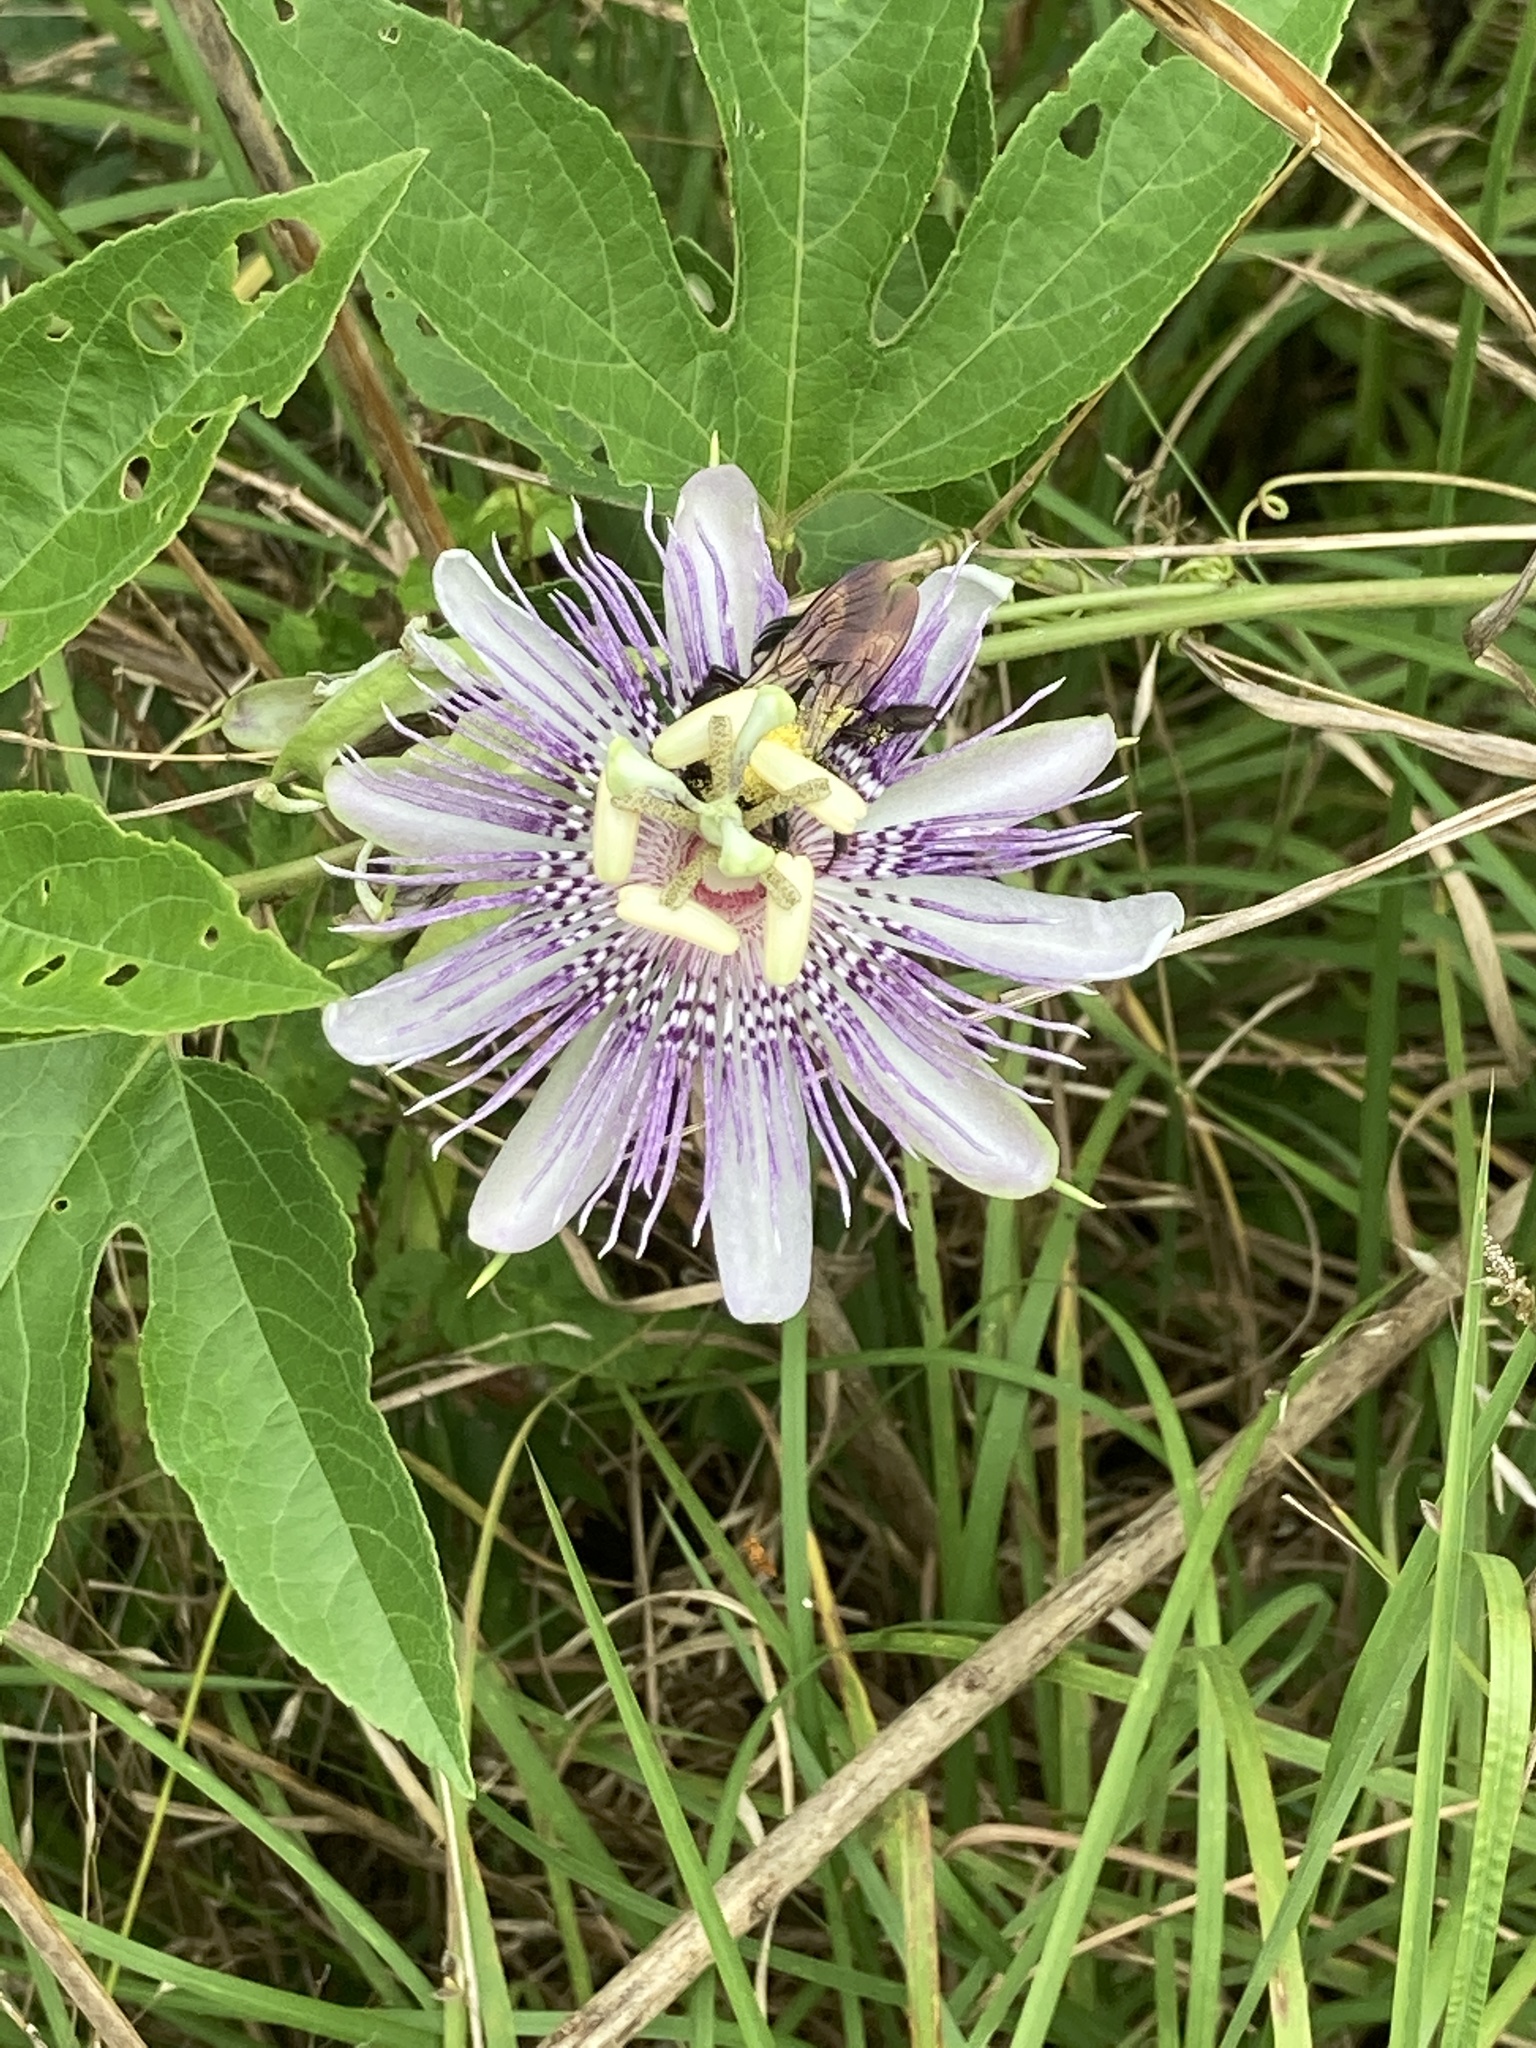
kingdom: Plantae
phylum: Tracheophyta
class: Magnoliopsida
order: Malpighiales
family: Passifloraceae
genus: Passiflora
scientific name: Passiflora incarnata
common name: Apricot-vine
